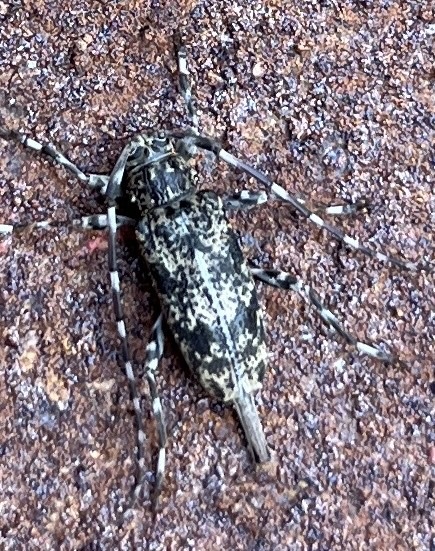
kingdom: Animalia
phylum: Arthropoda
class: Insecta
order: Coleoptera
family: Cerambycidae
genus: Graphisurus
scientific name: Graphisurus fasciatus
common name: Banded graphisurus
